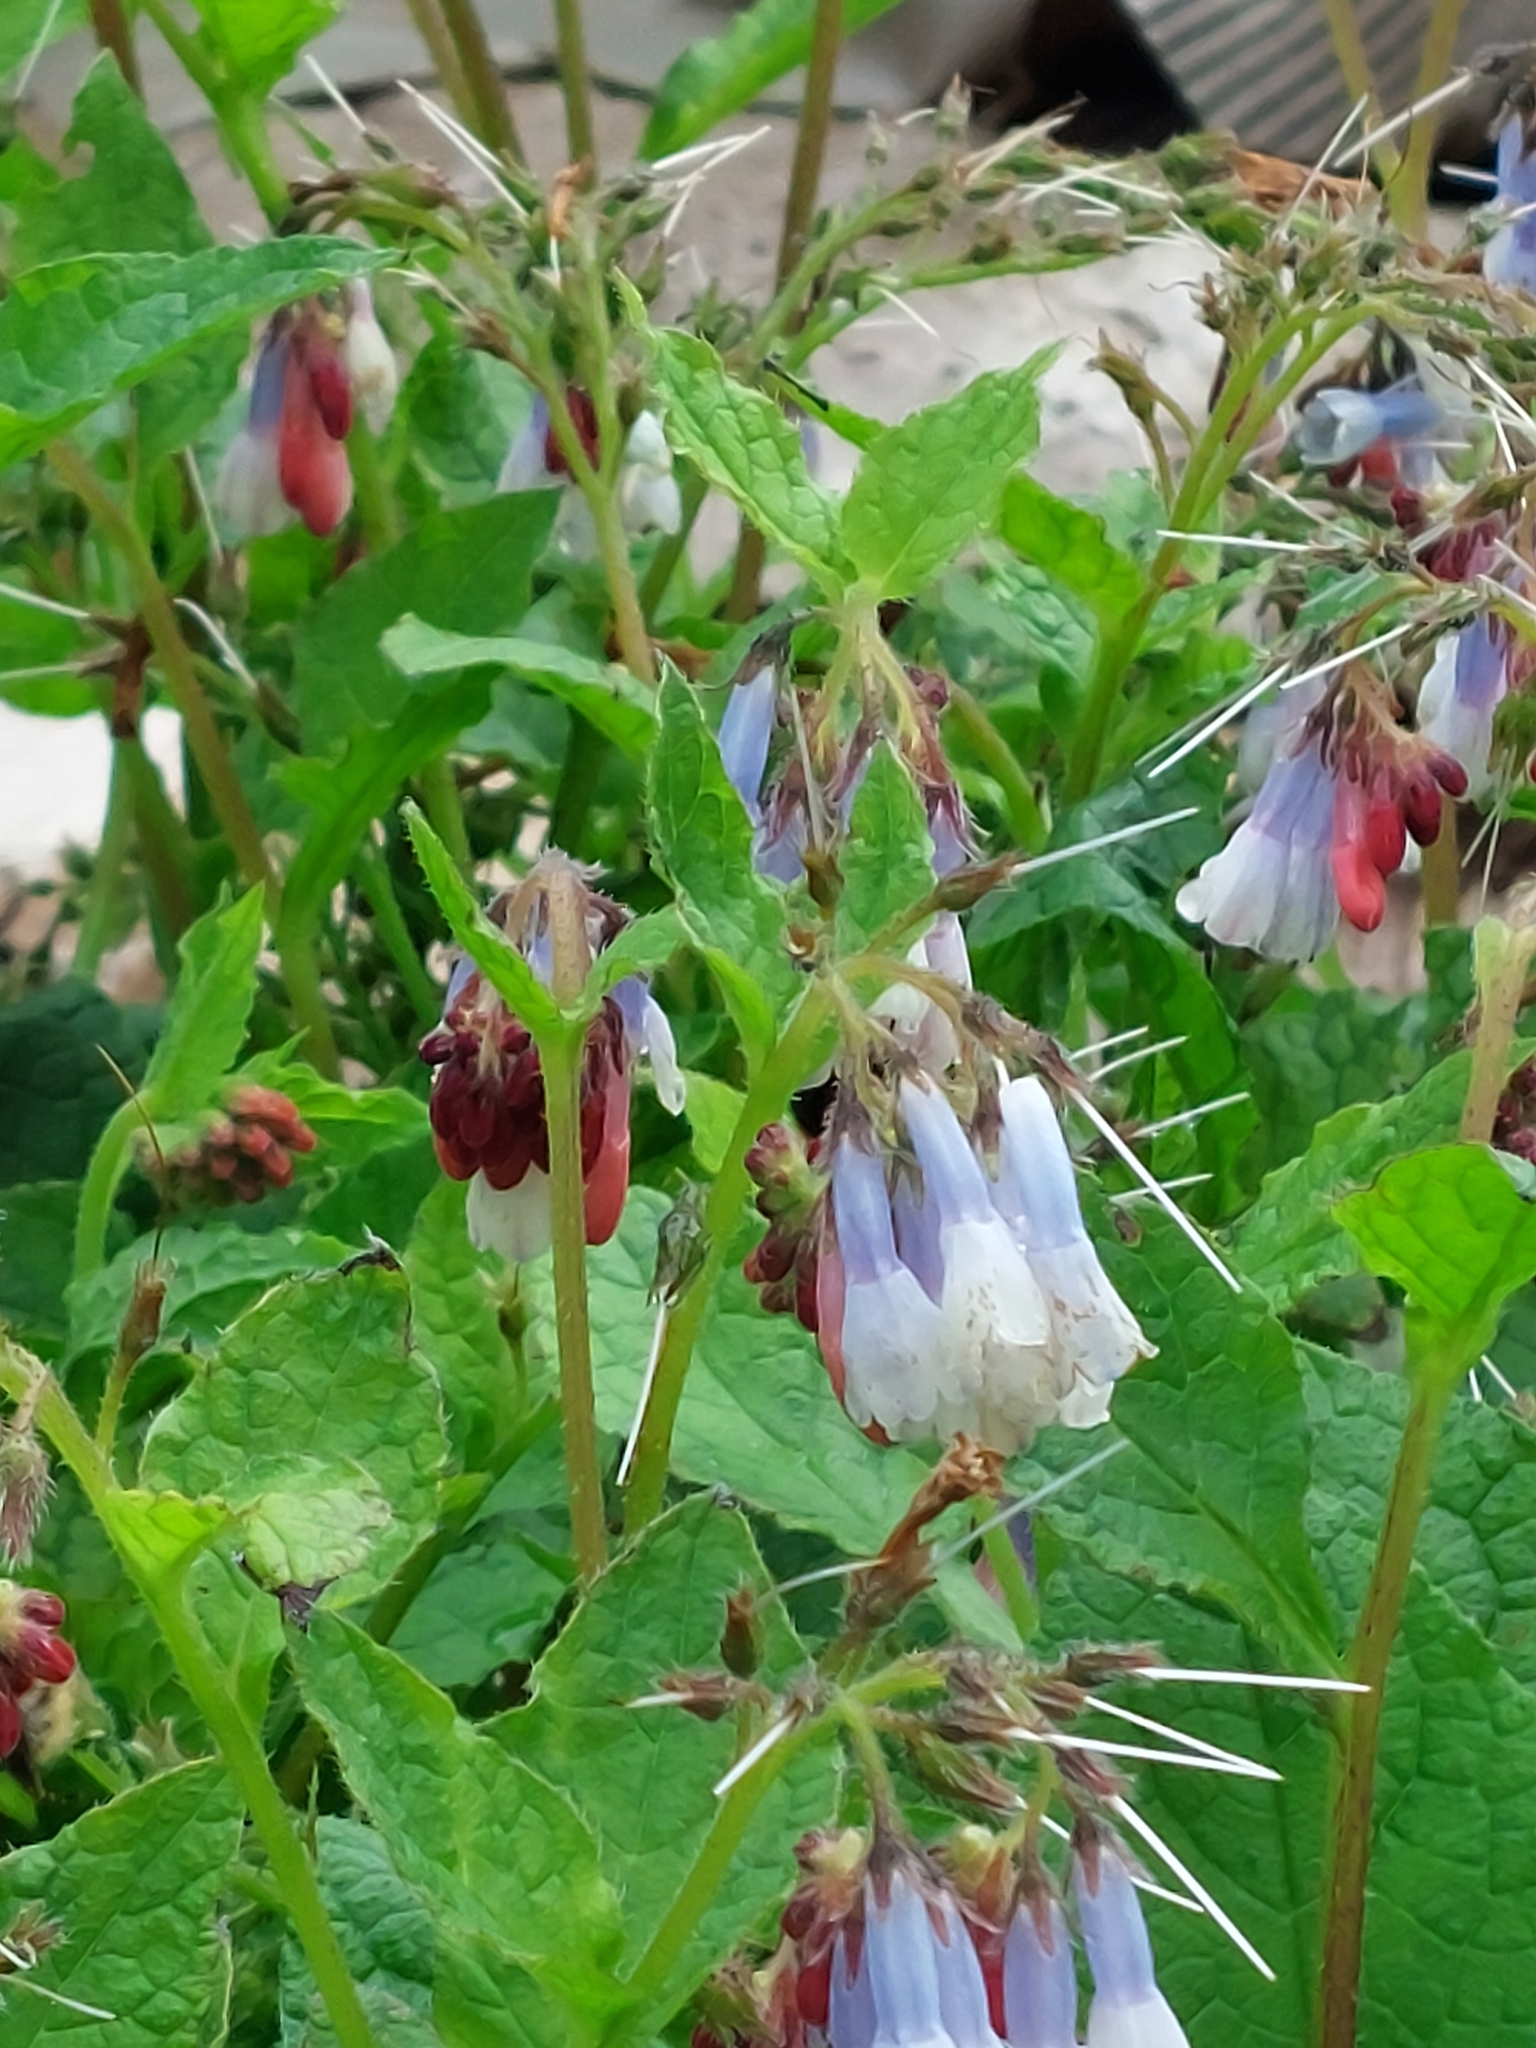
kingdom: Plantae
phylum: Tracheophyta
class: Magnoliopsida
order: Boraginales
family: Boraginaceae
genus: Symphytum
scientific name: Symphytum hidcotense
